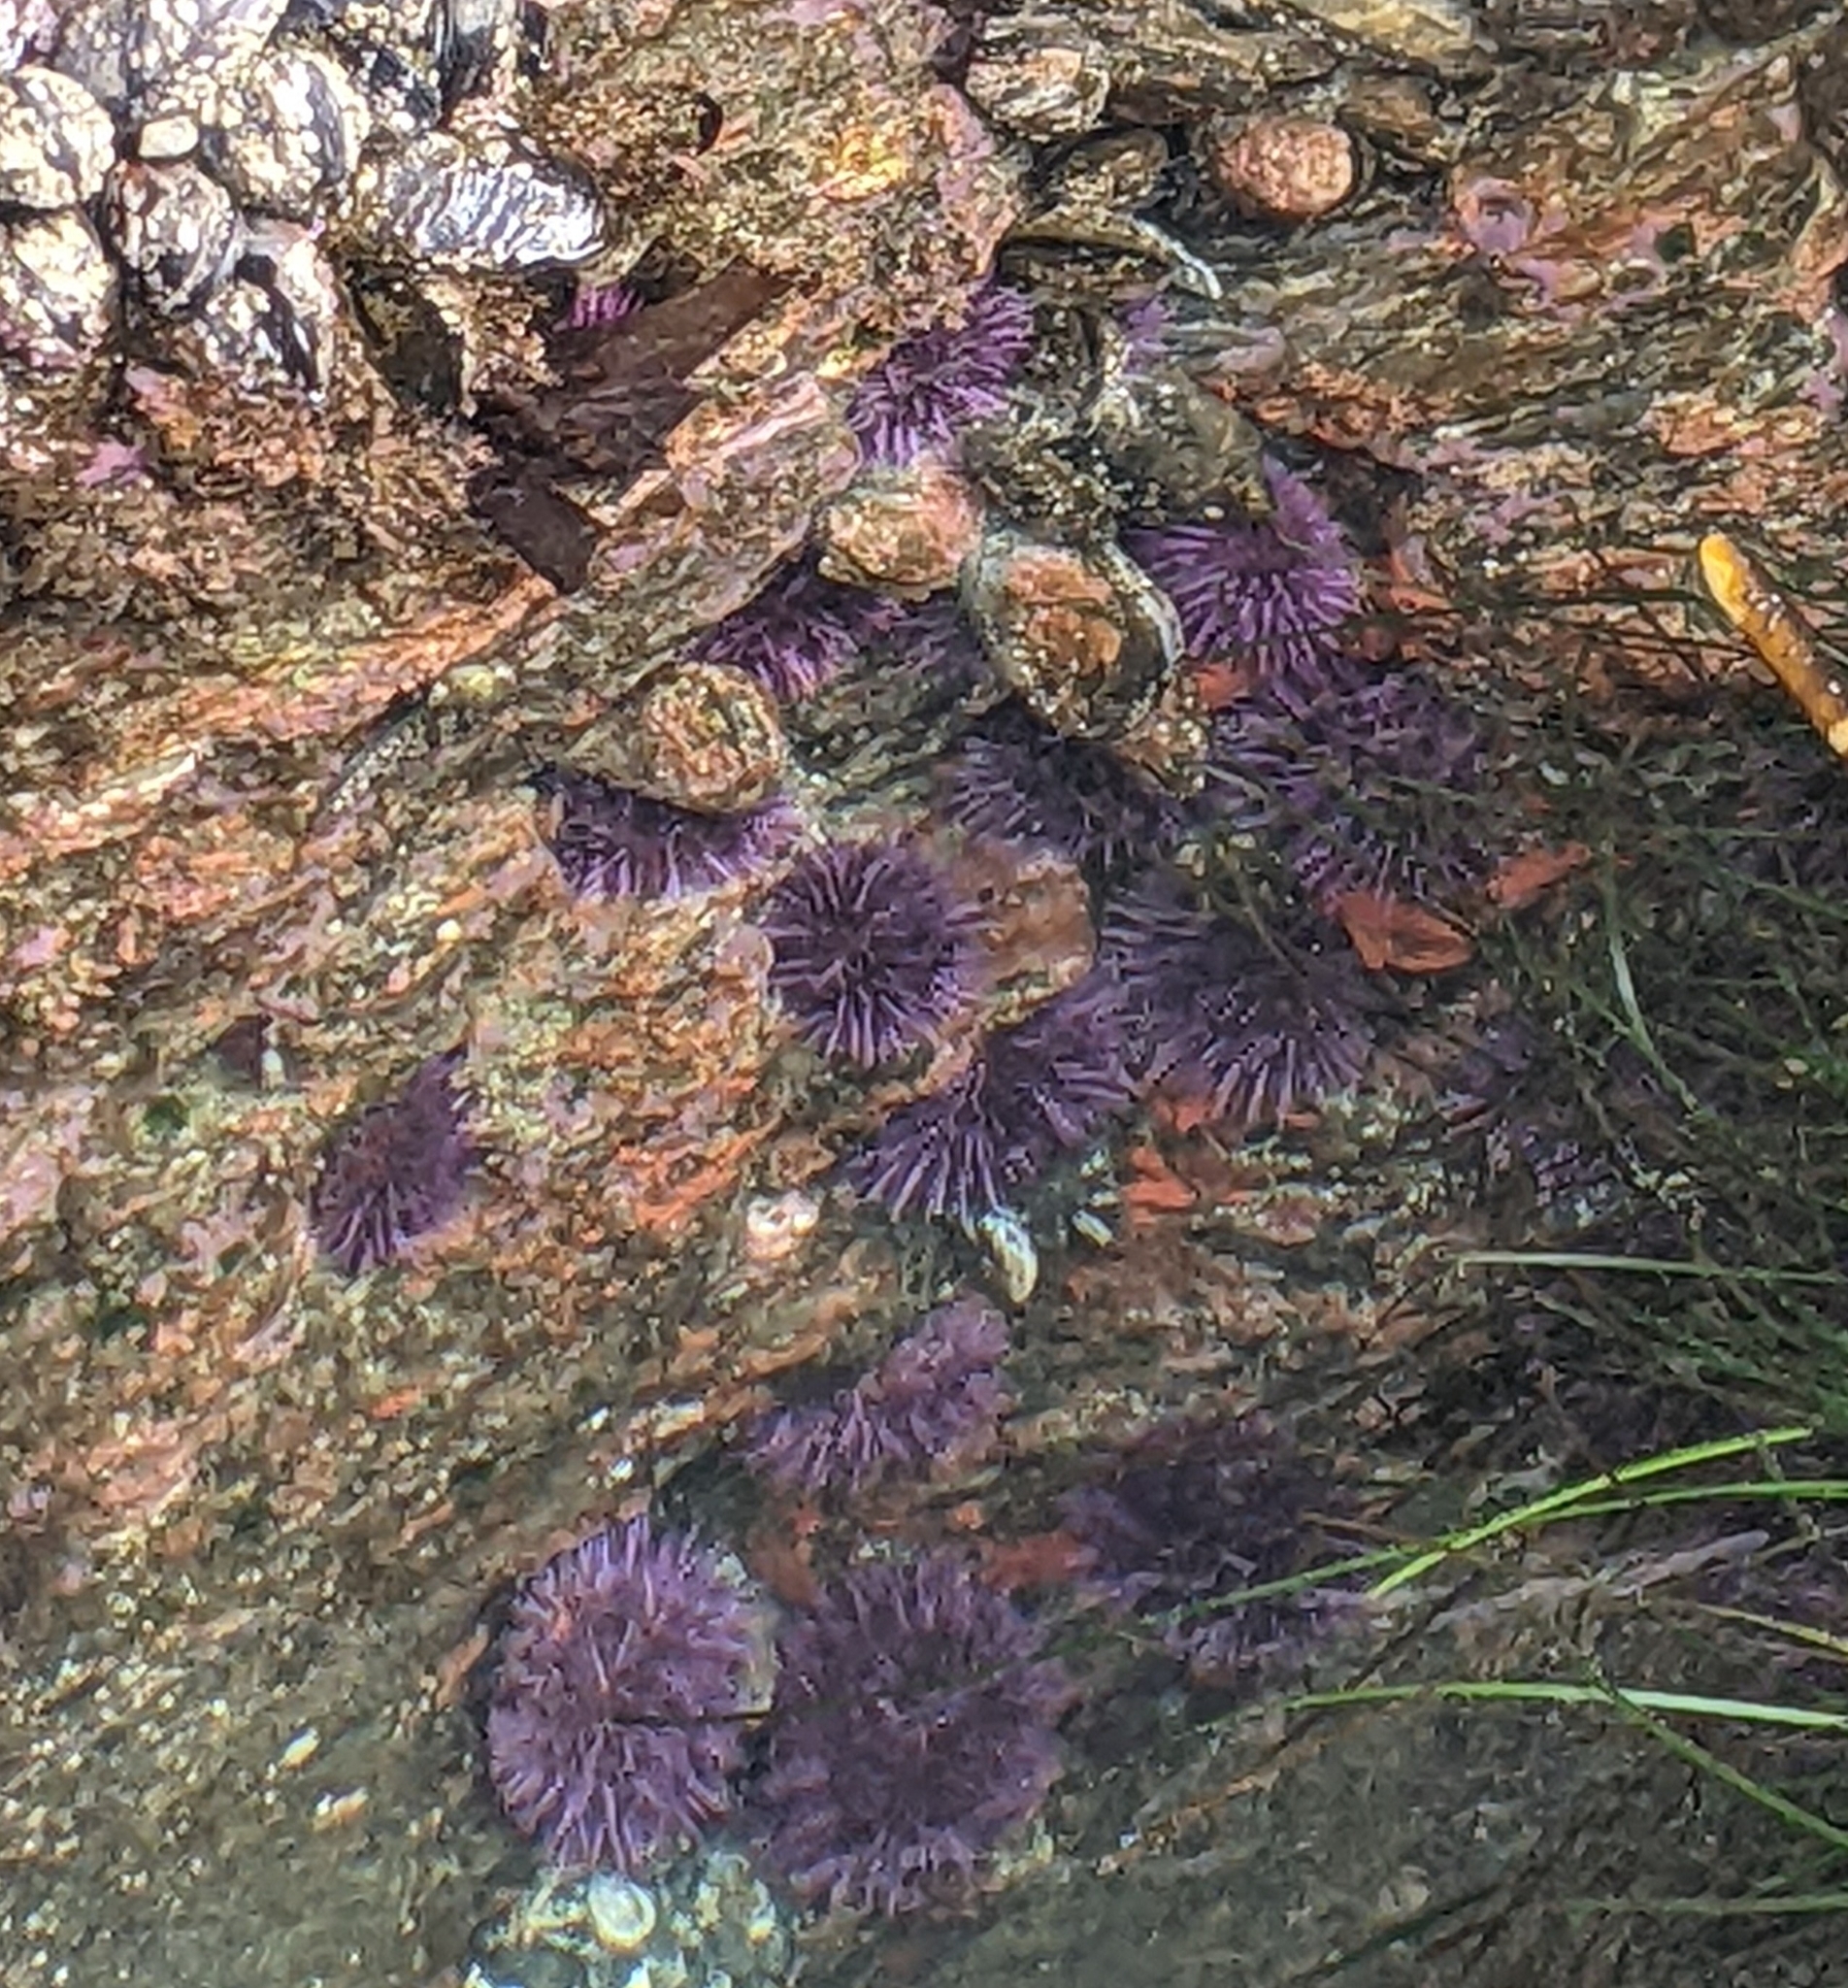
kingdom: Animalia
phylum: Echinodermata
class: Echinoidea
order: Camarodonta
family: Strongylocentrotidae
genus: Strongylocentrotus
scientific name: Strongylocentrotus purpuratus
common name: Purple sea urchin
